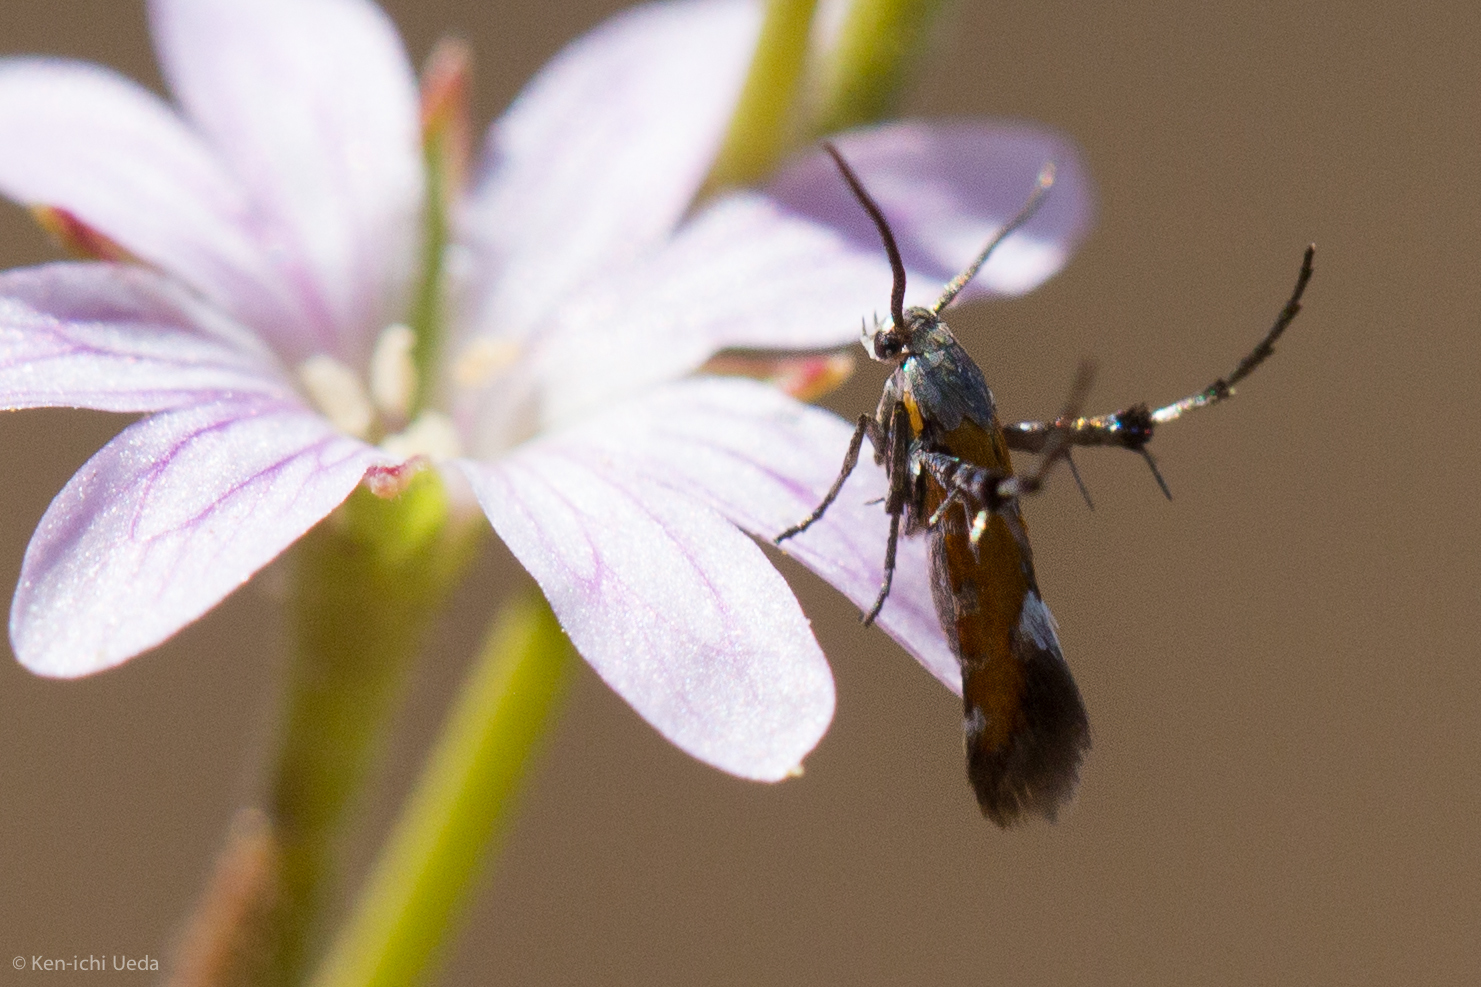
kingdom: Animalia
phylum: Arthropoda
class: Insecta
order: Lepidoptera
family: Heliodinidae
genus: Heliodines
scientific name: Heliodines Aetole extraneella
